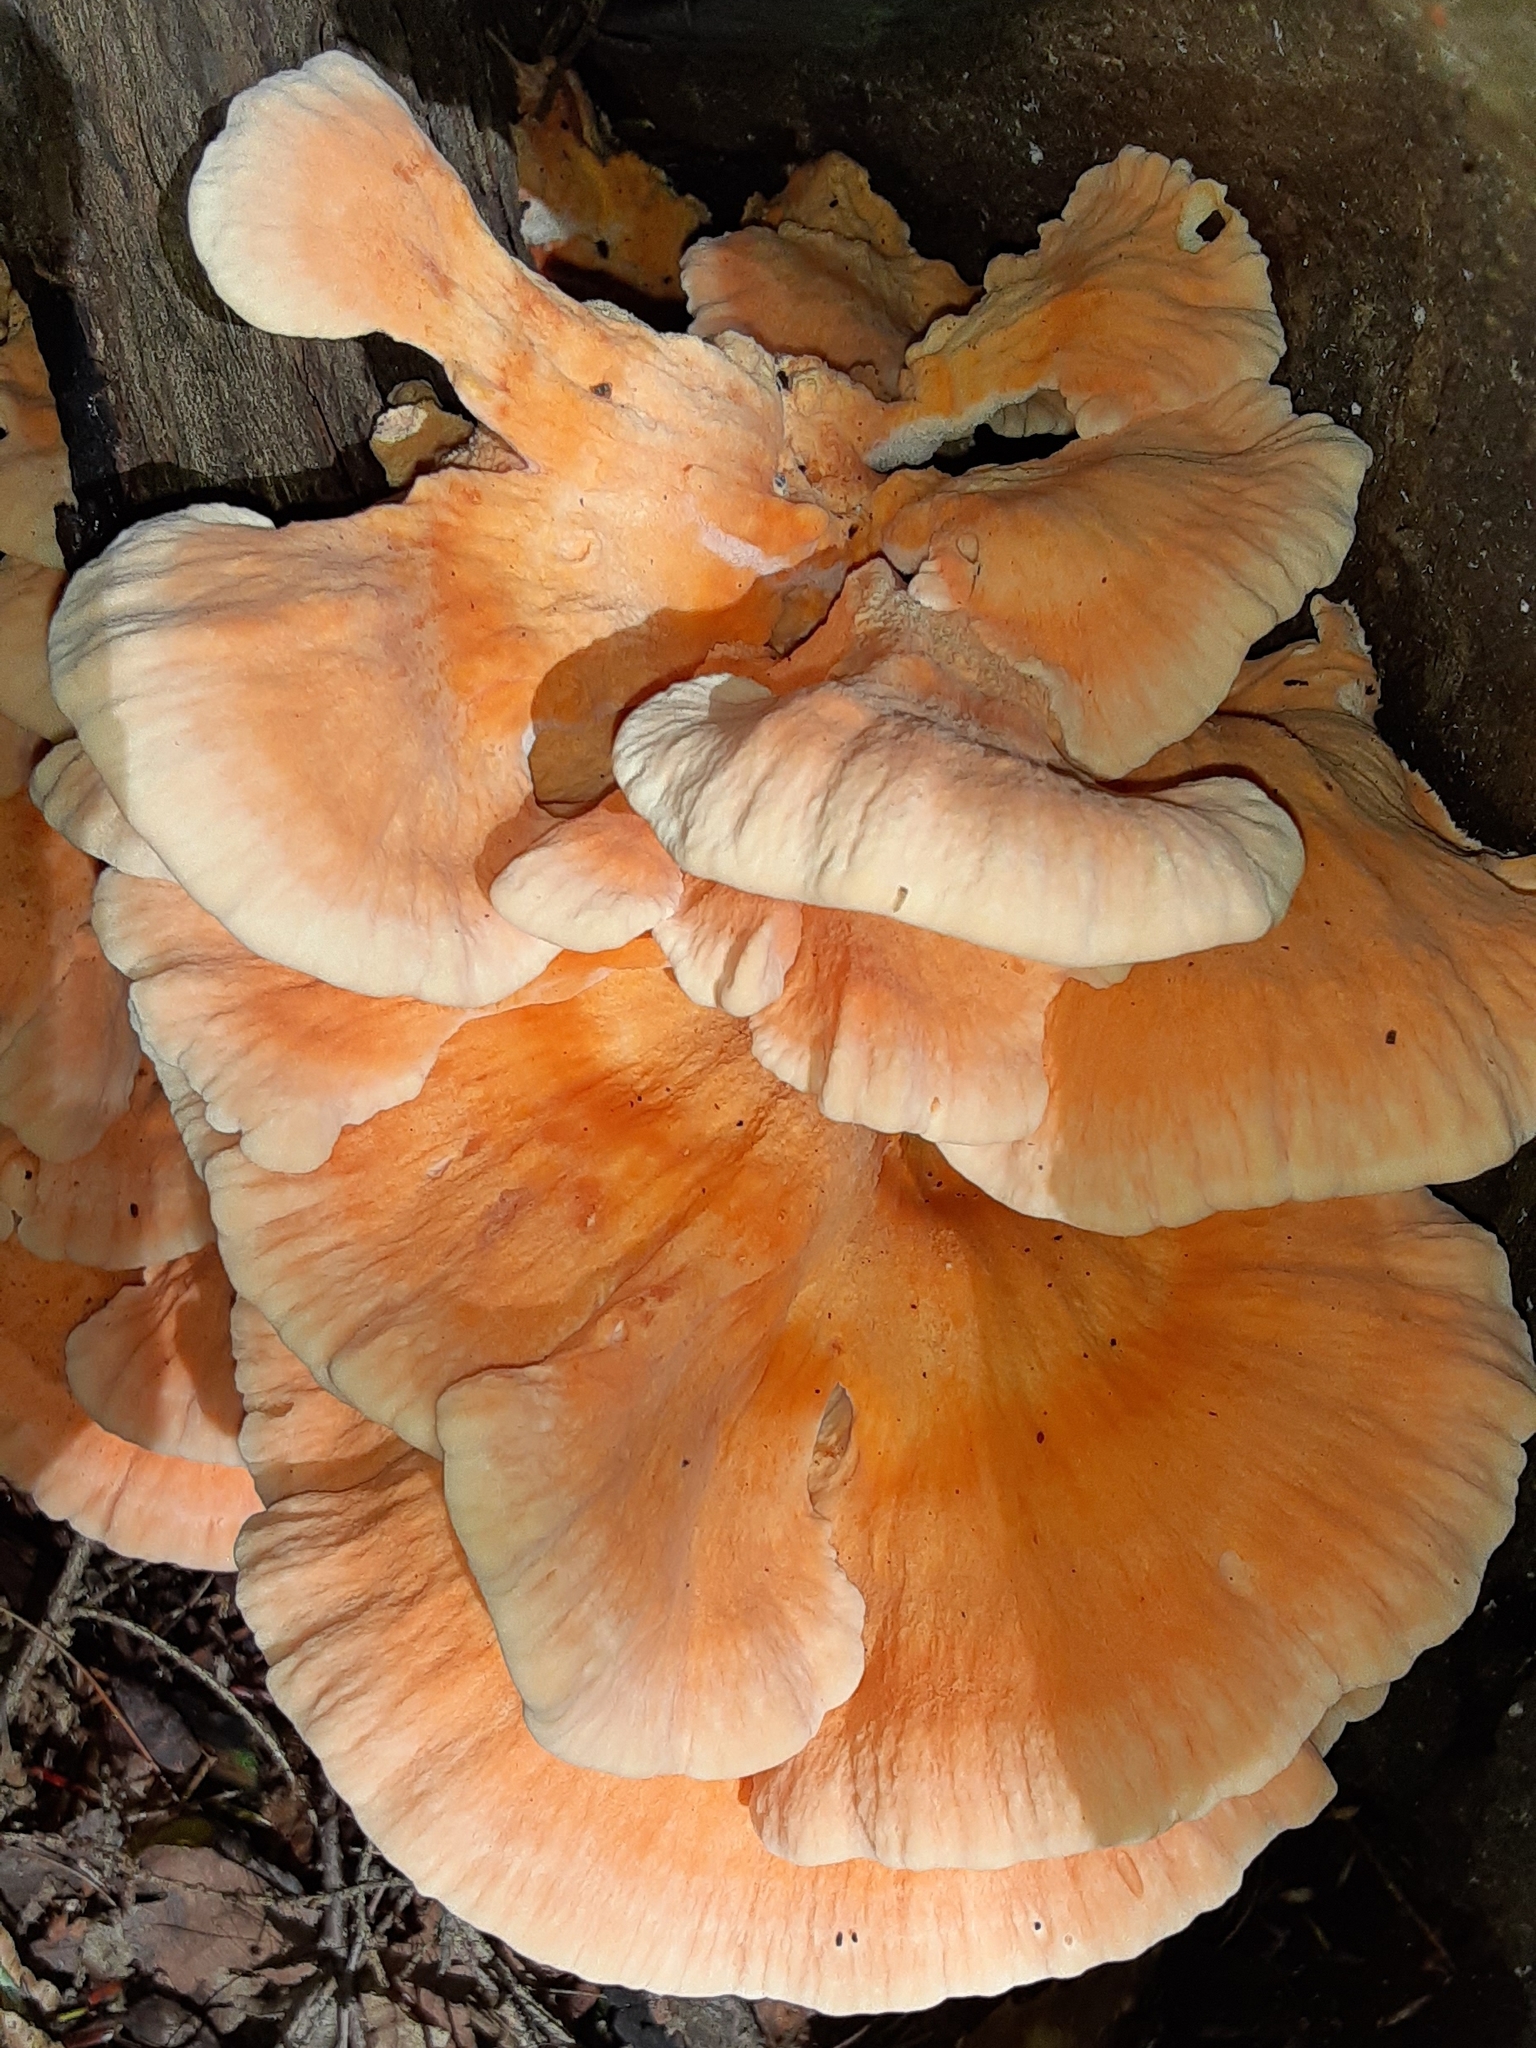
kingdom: Fungi
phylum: Basidiomycota
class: Agaricomycetes
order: Polyporales
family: Laetiporaceae
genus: Laetiporus
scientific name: Laetiporus sulphureus
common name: Chicken of the woods
